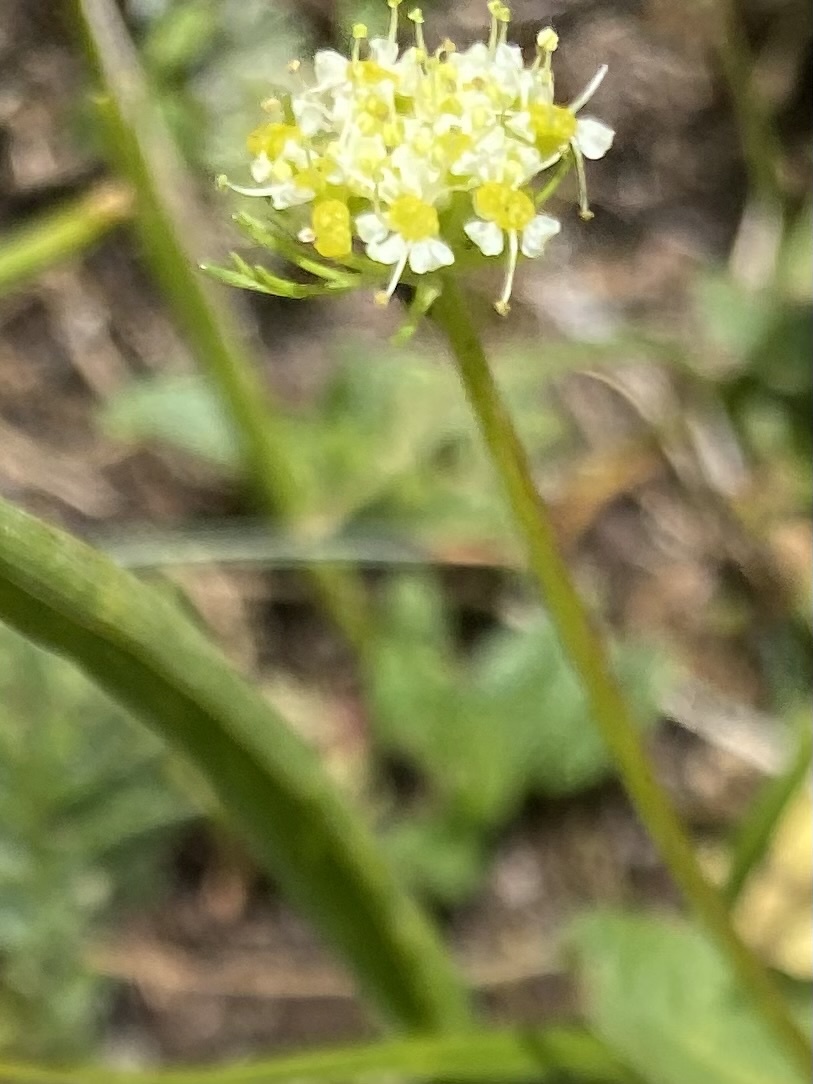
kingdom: Plantae
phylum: Tracheophyta
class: Magnoliopsida
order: Apiales
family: Apiaceae
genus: Chamaesciadium
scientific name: Chamaesciadium acaule
